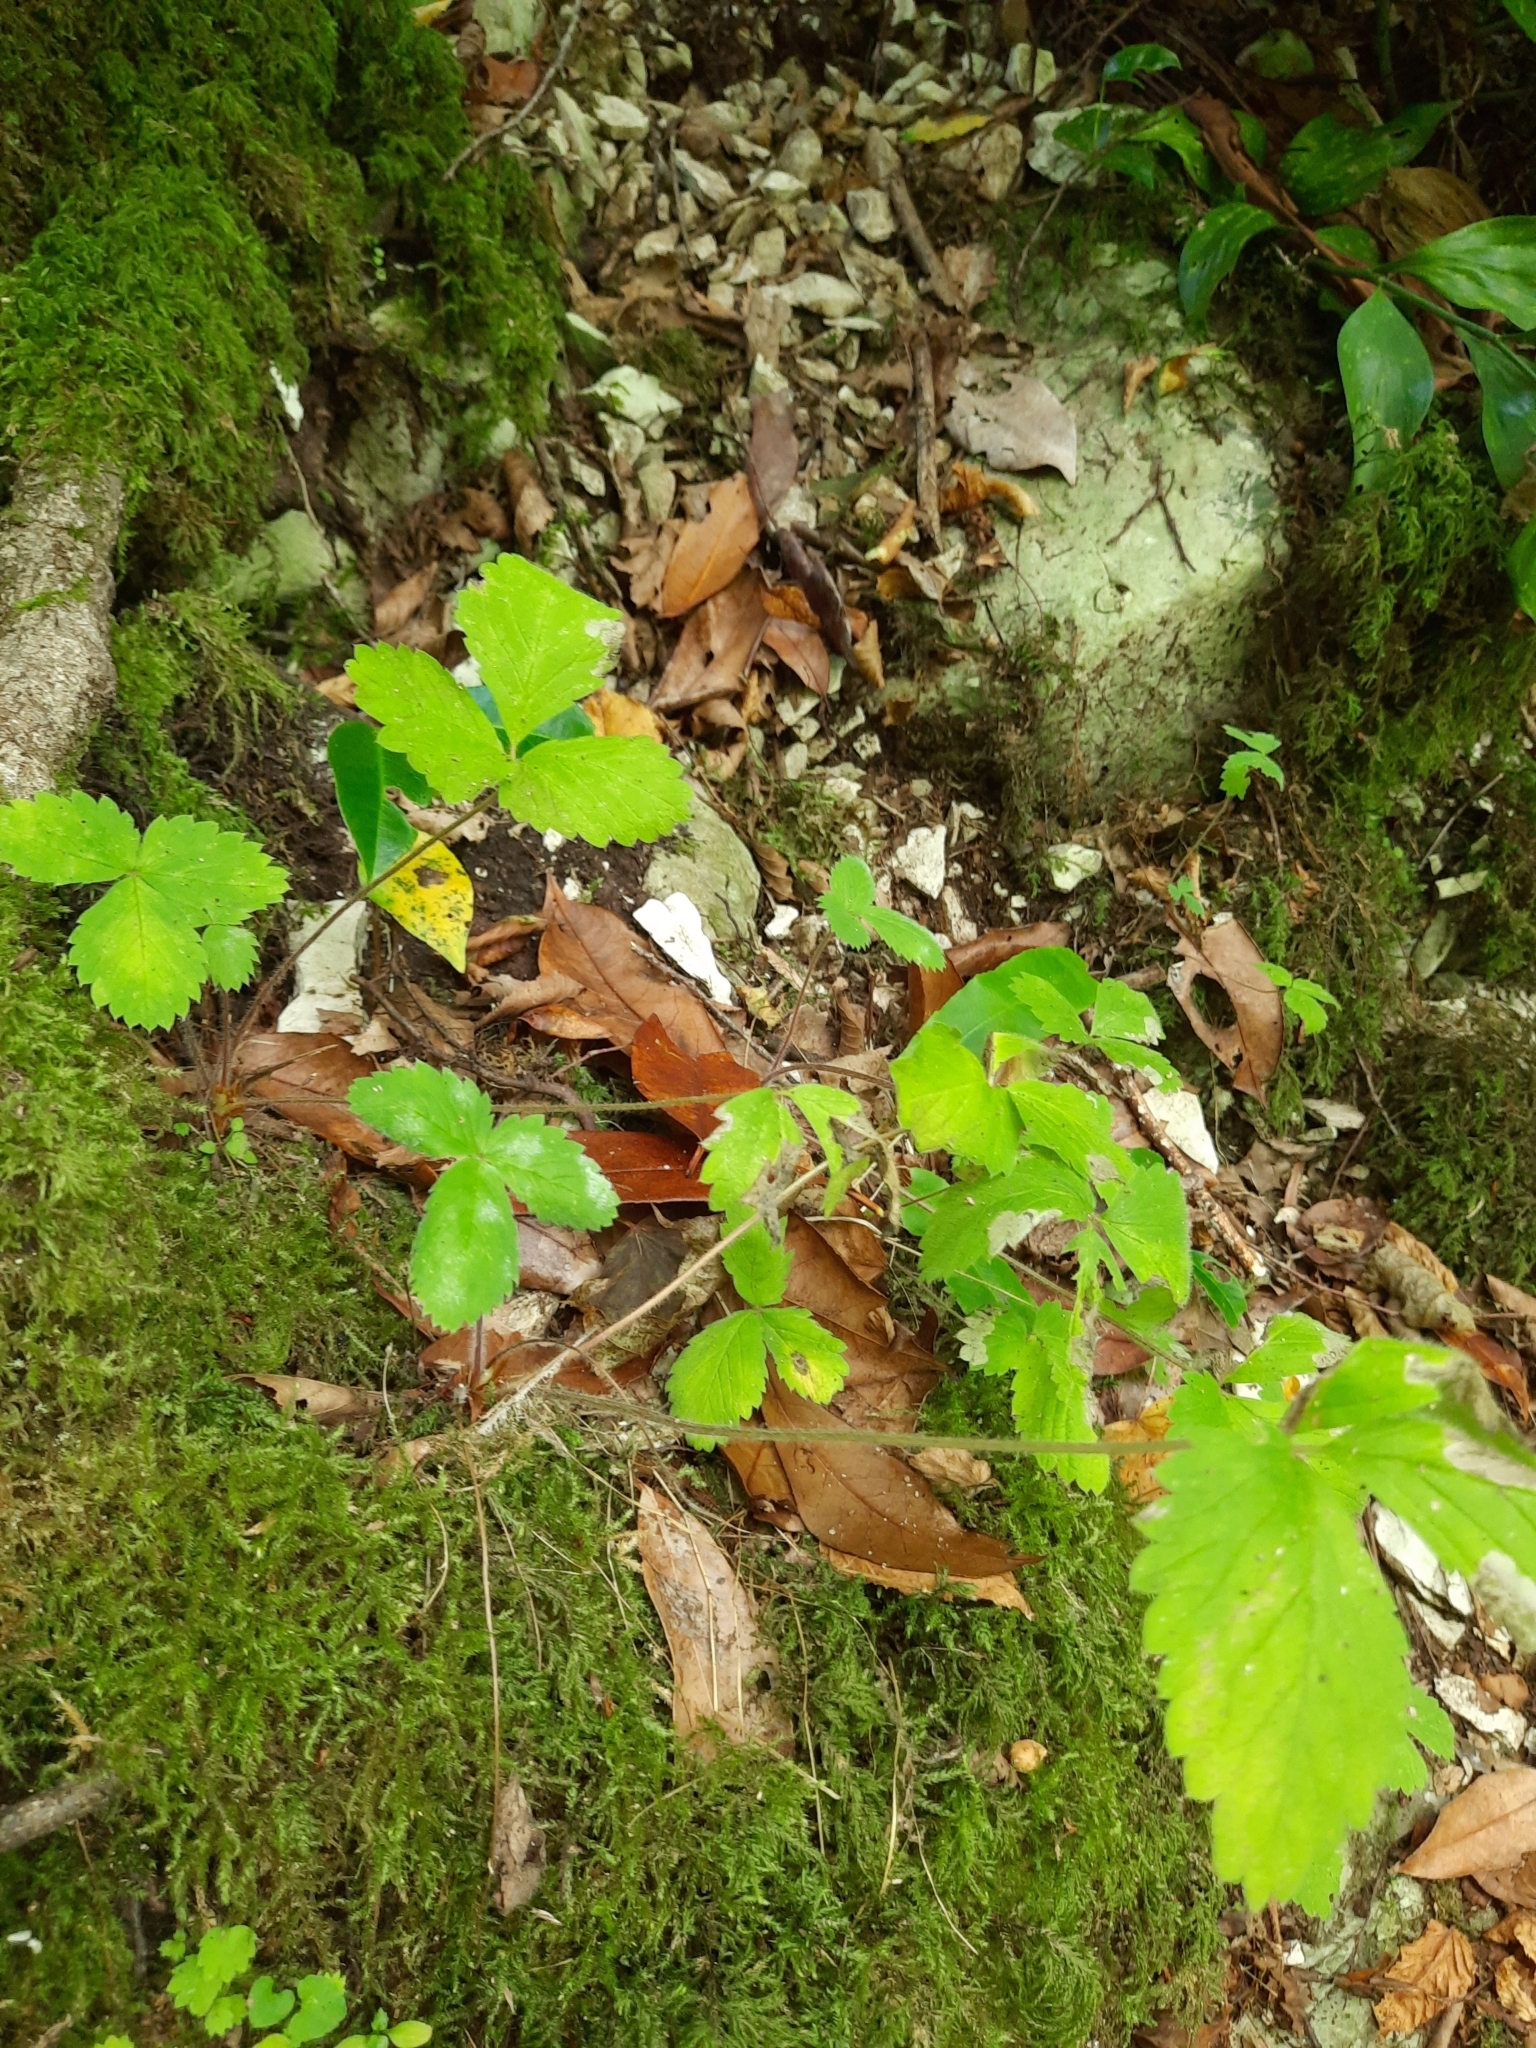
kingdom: Plantae
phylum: Tracheophyta
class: Magnoliopsida
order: Rosales
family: Rosaceae
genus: Fragaria
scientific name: Fragaria vesca
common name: Wild strawberry
